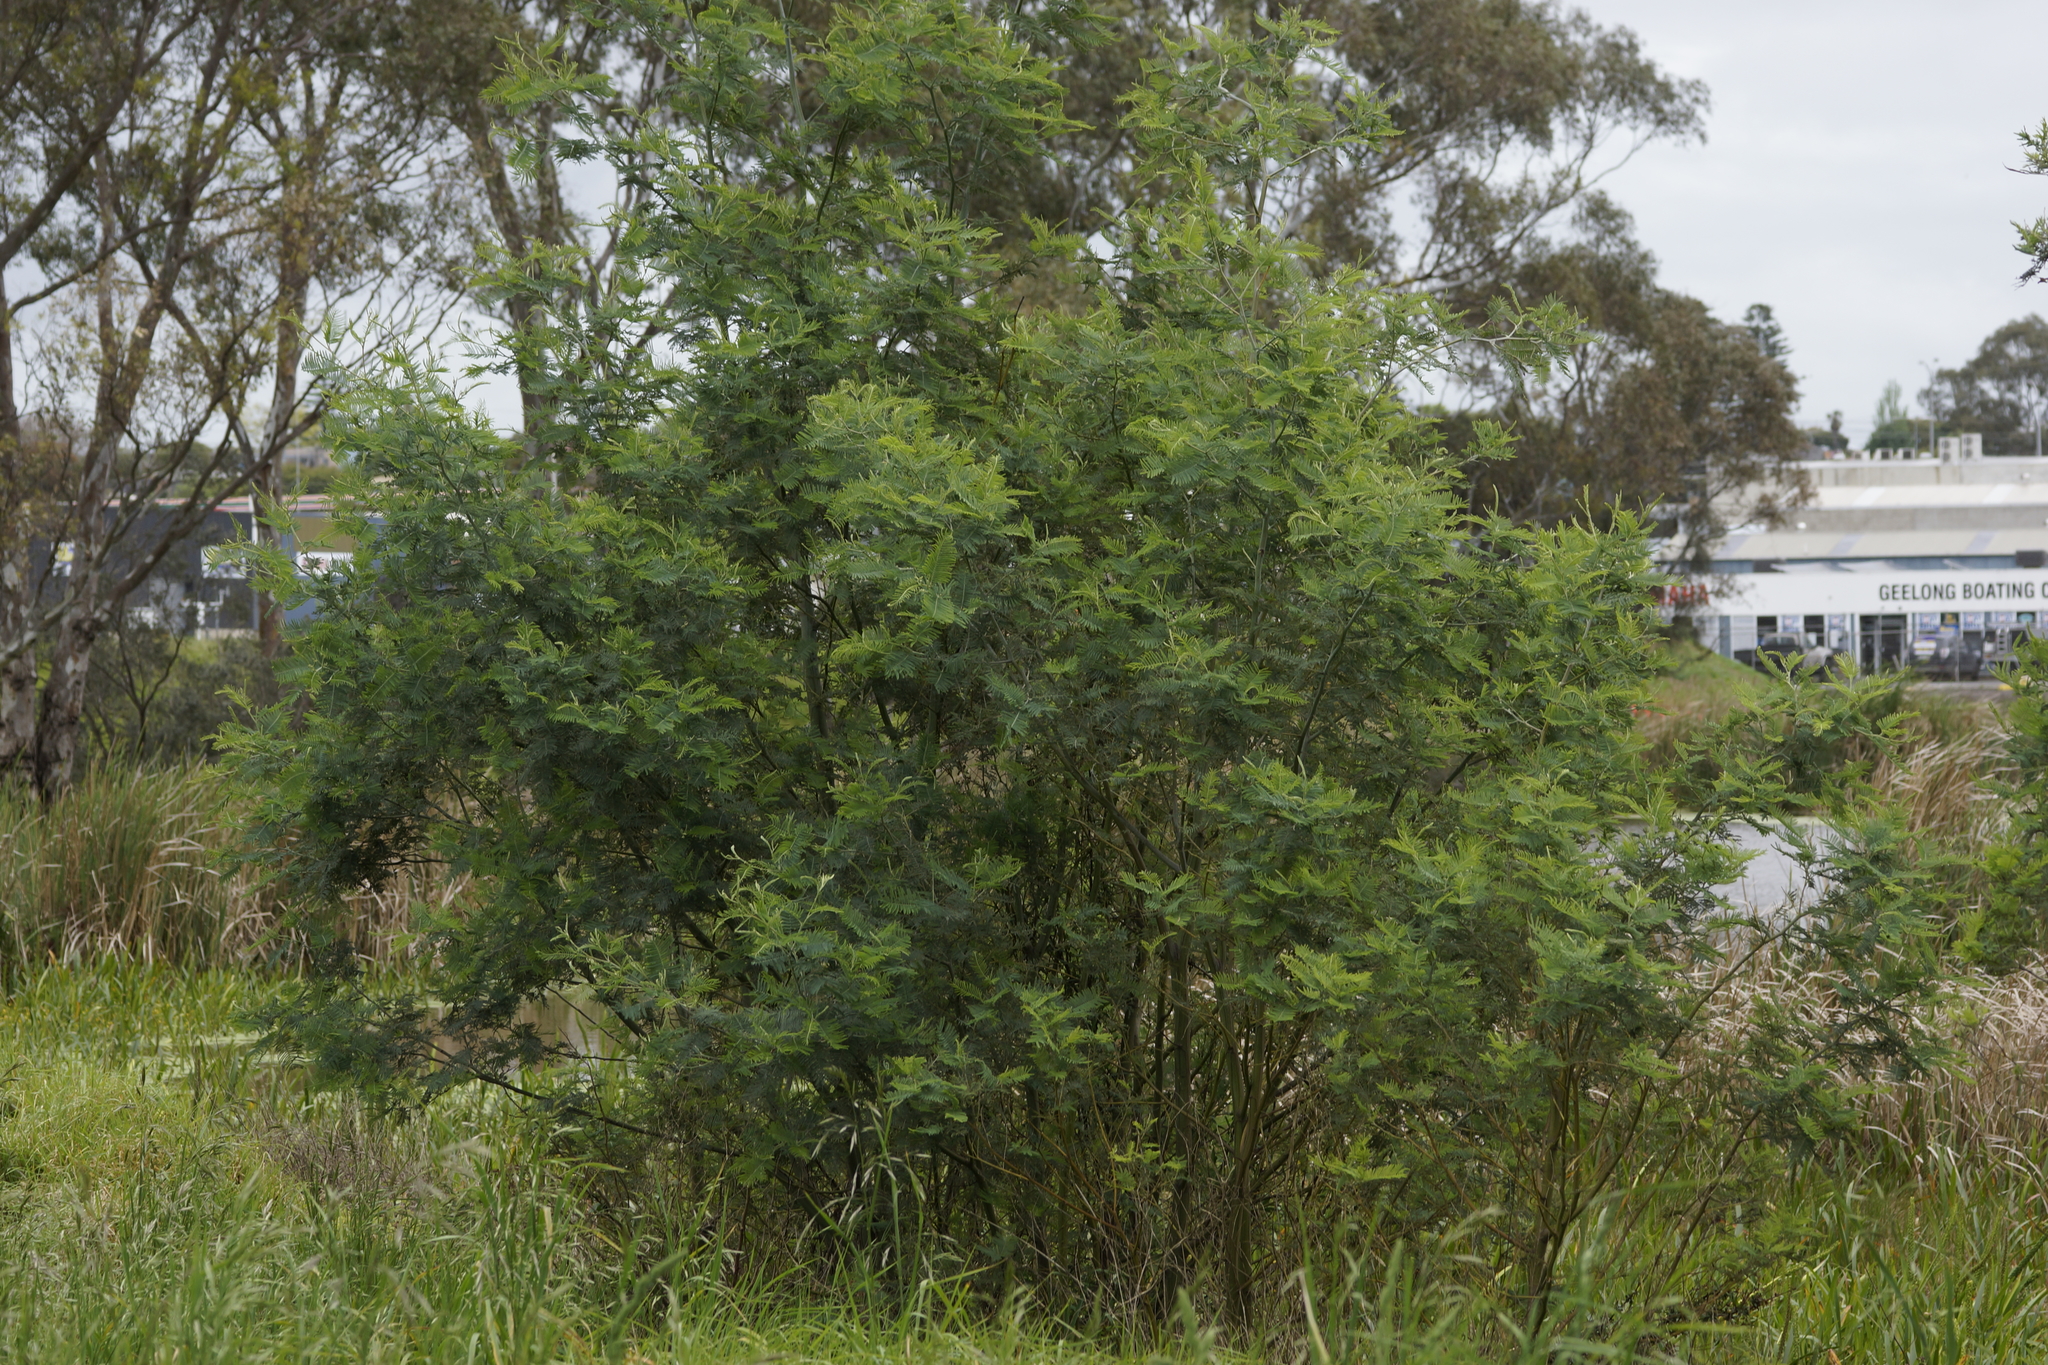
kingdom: Plantae
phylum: Tracheophyta
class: Magnoliopsida
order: Fabales
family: Fabaceae
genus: Acacia
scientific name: Acacia dealbata
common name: Silver wattle
